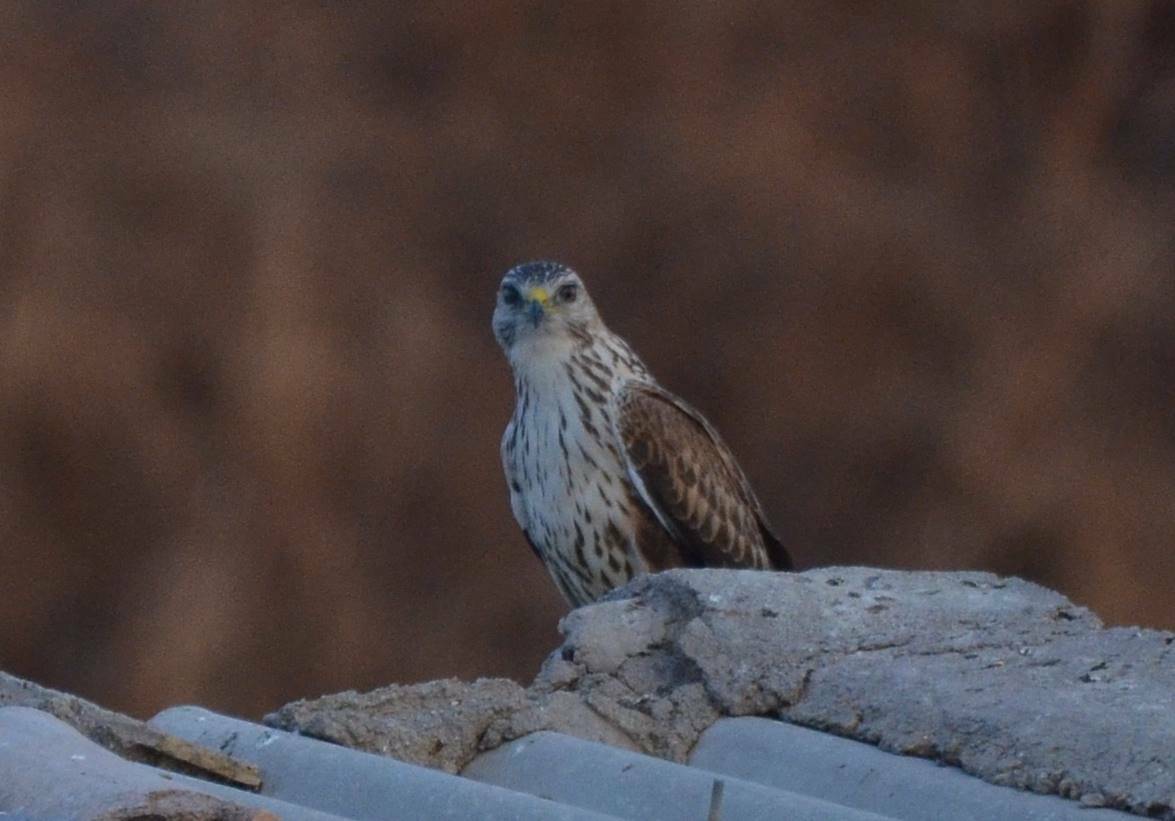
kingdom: Animalia
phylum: Chordata
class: Aves
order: Accipitriformes
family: Accipitridae
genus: Buteo
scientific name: Buteo rufinus
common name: Long-legged buzzard
